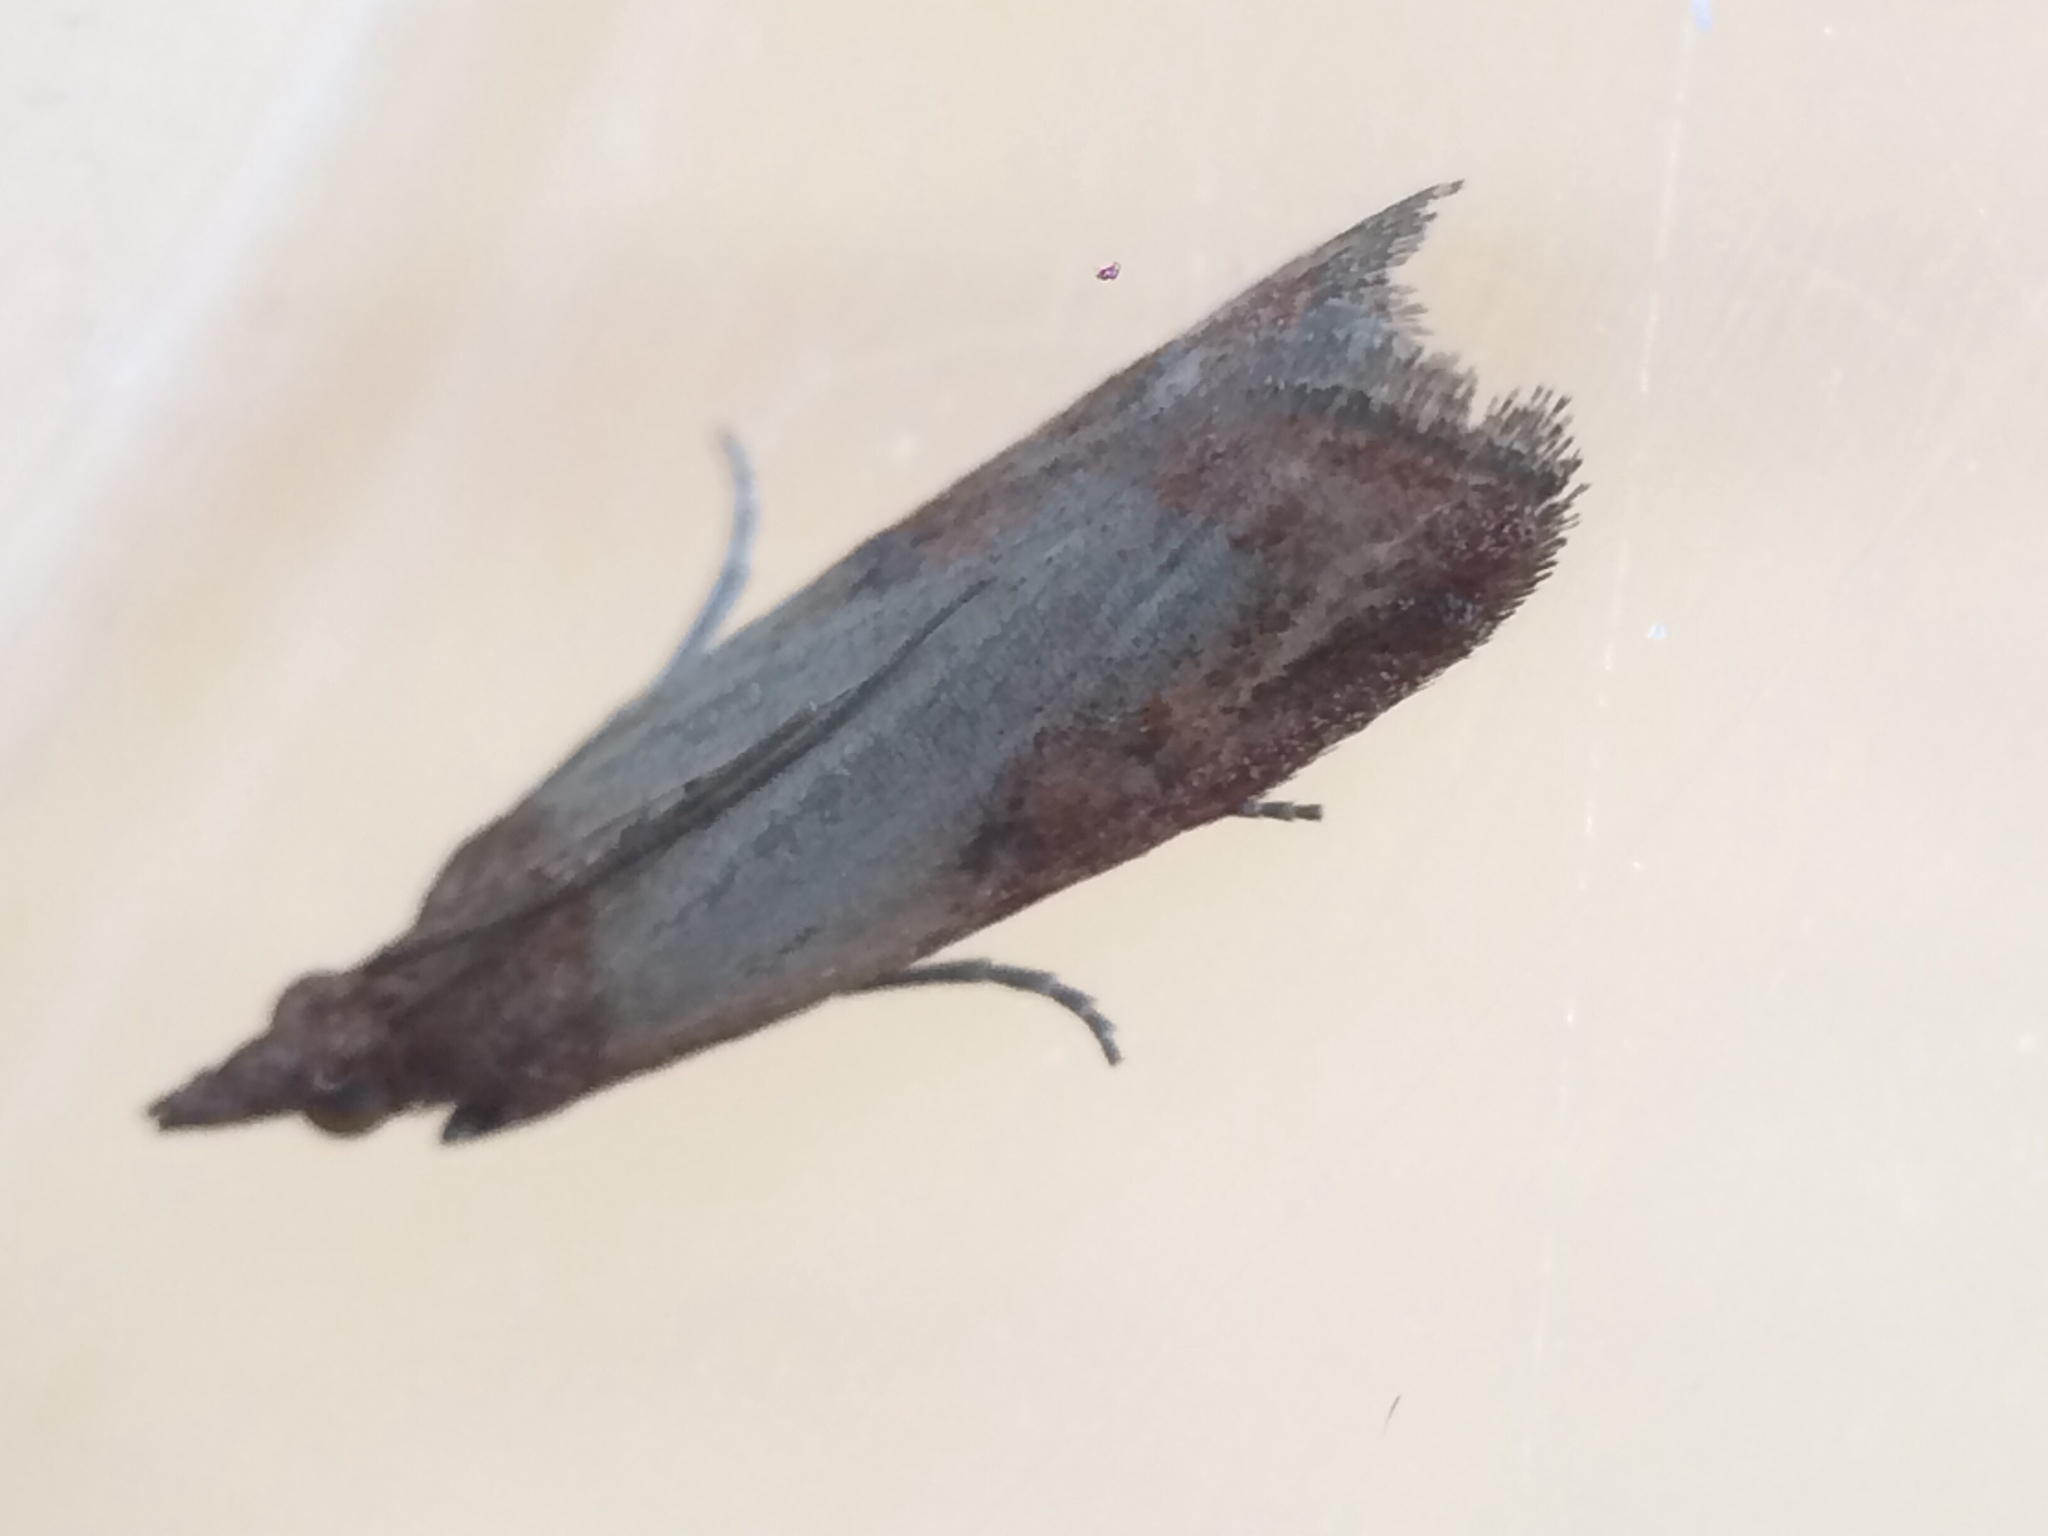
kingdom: Animalia
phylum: Arthropoda
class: Insecta
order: Lepidoptera
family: Pyralidae
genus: Plodia
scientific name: Plodia interpunctella
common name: Indian meal moth
